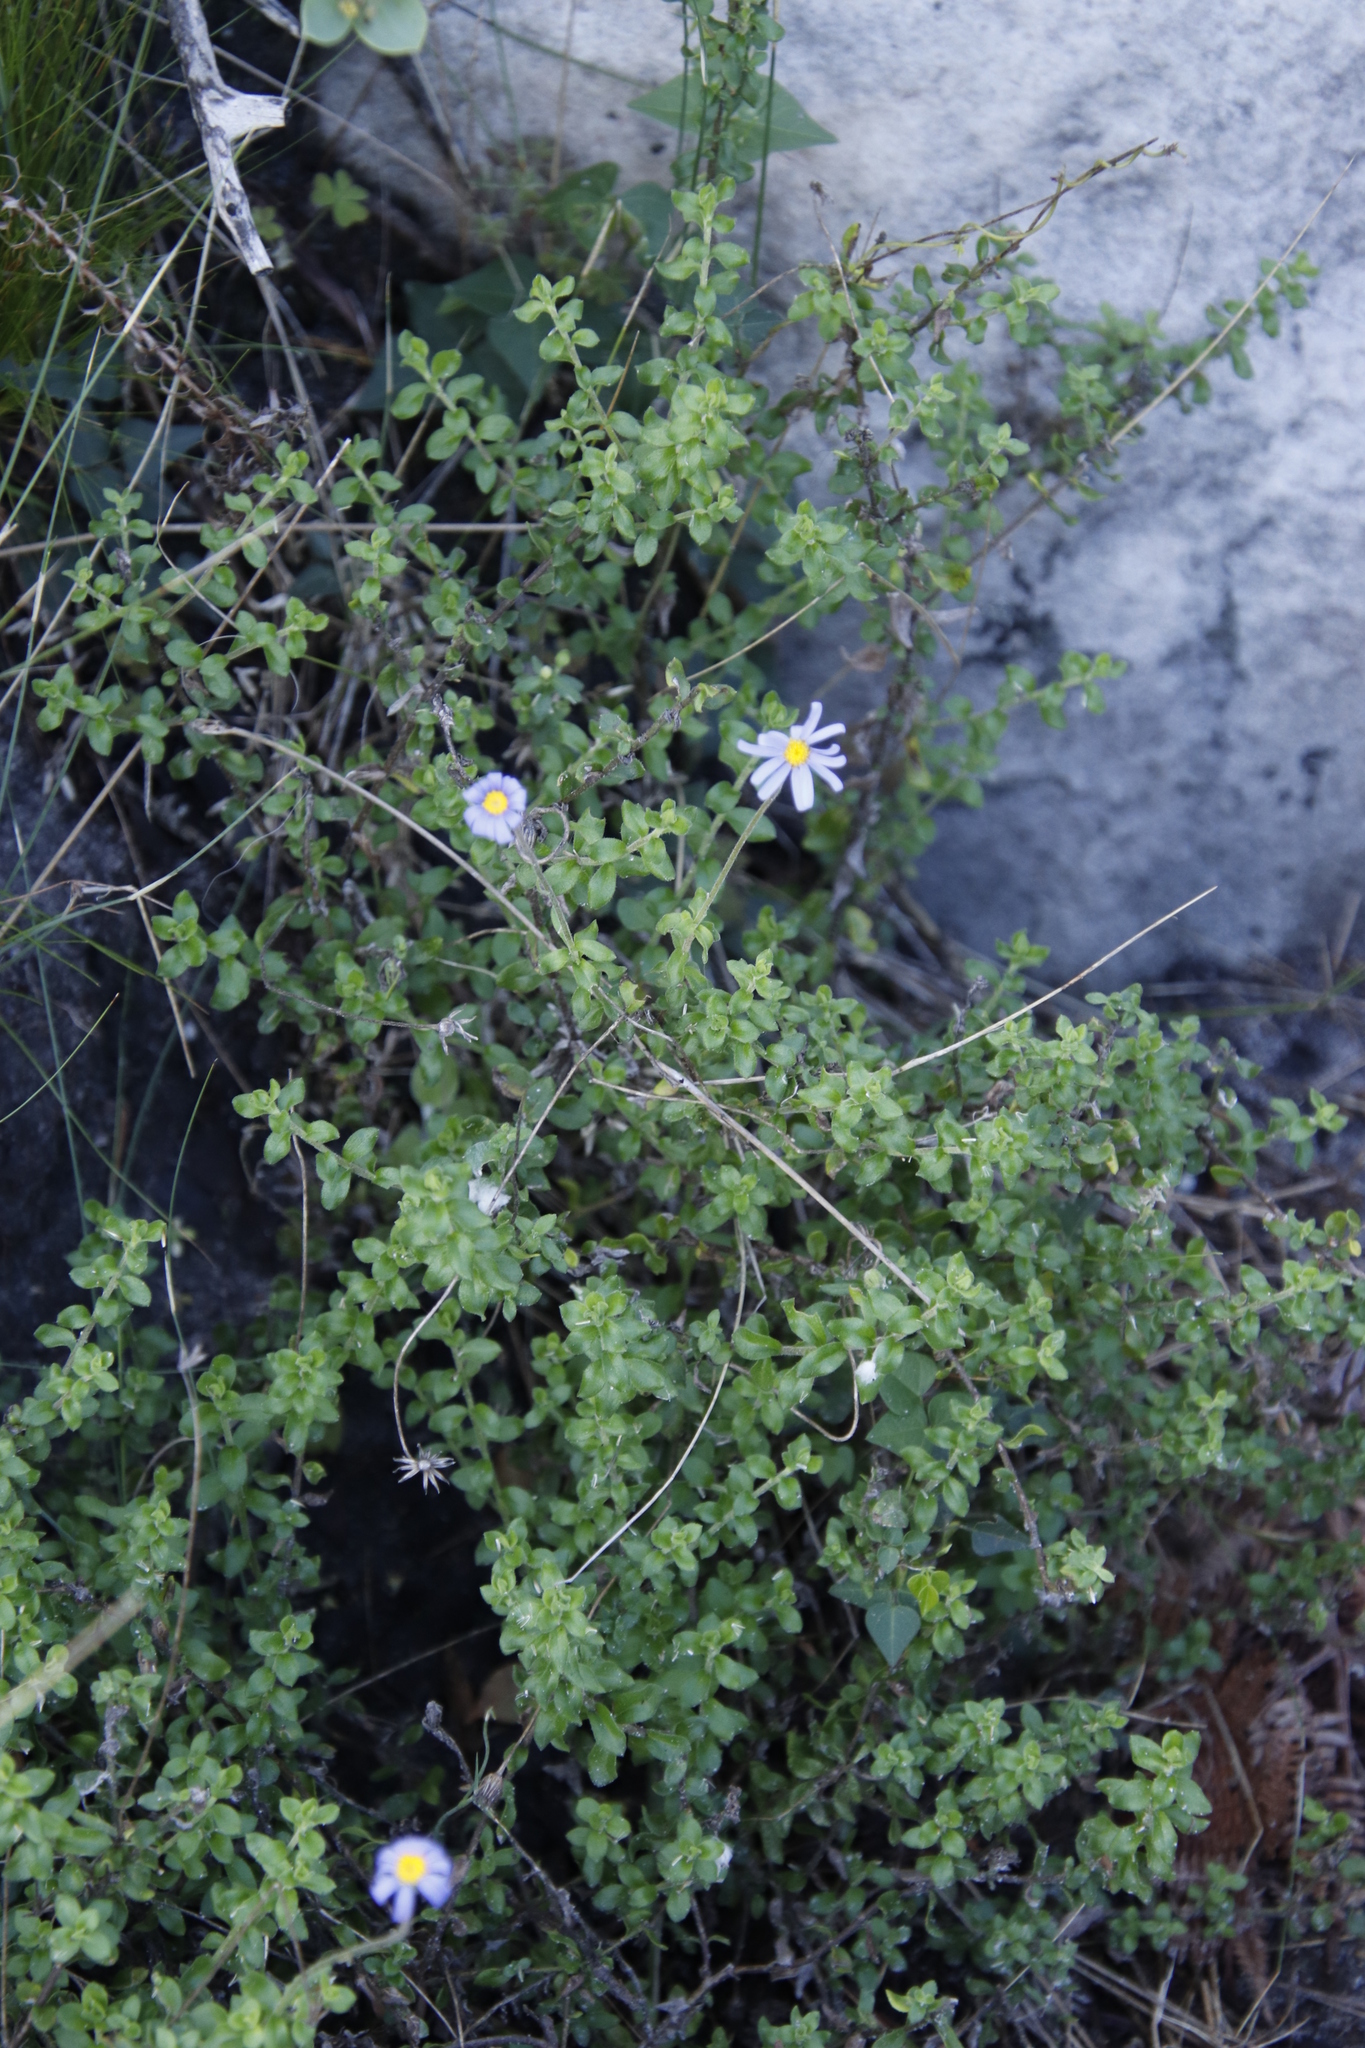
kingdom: Plantae
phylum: Tracheophyta
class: Magnoliopsida
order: Asterales
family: Asteraceae
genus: Felicia
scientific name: Felicia aethiopica
